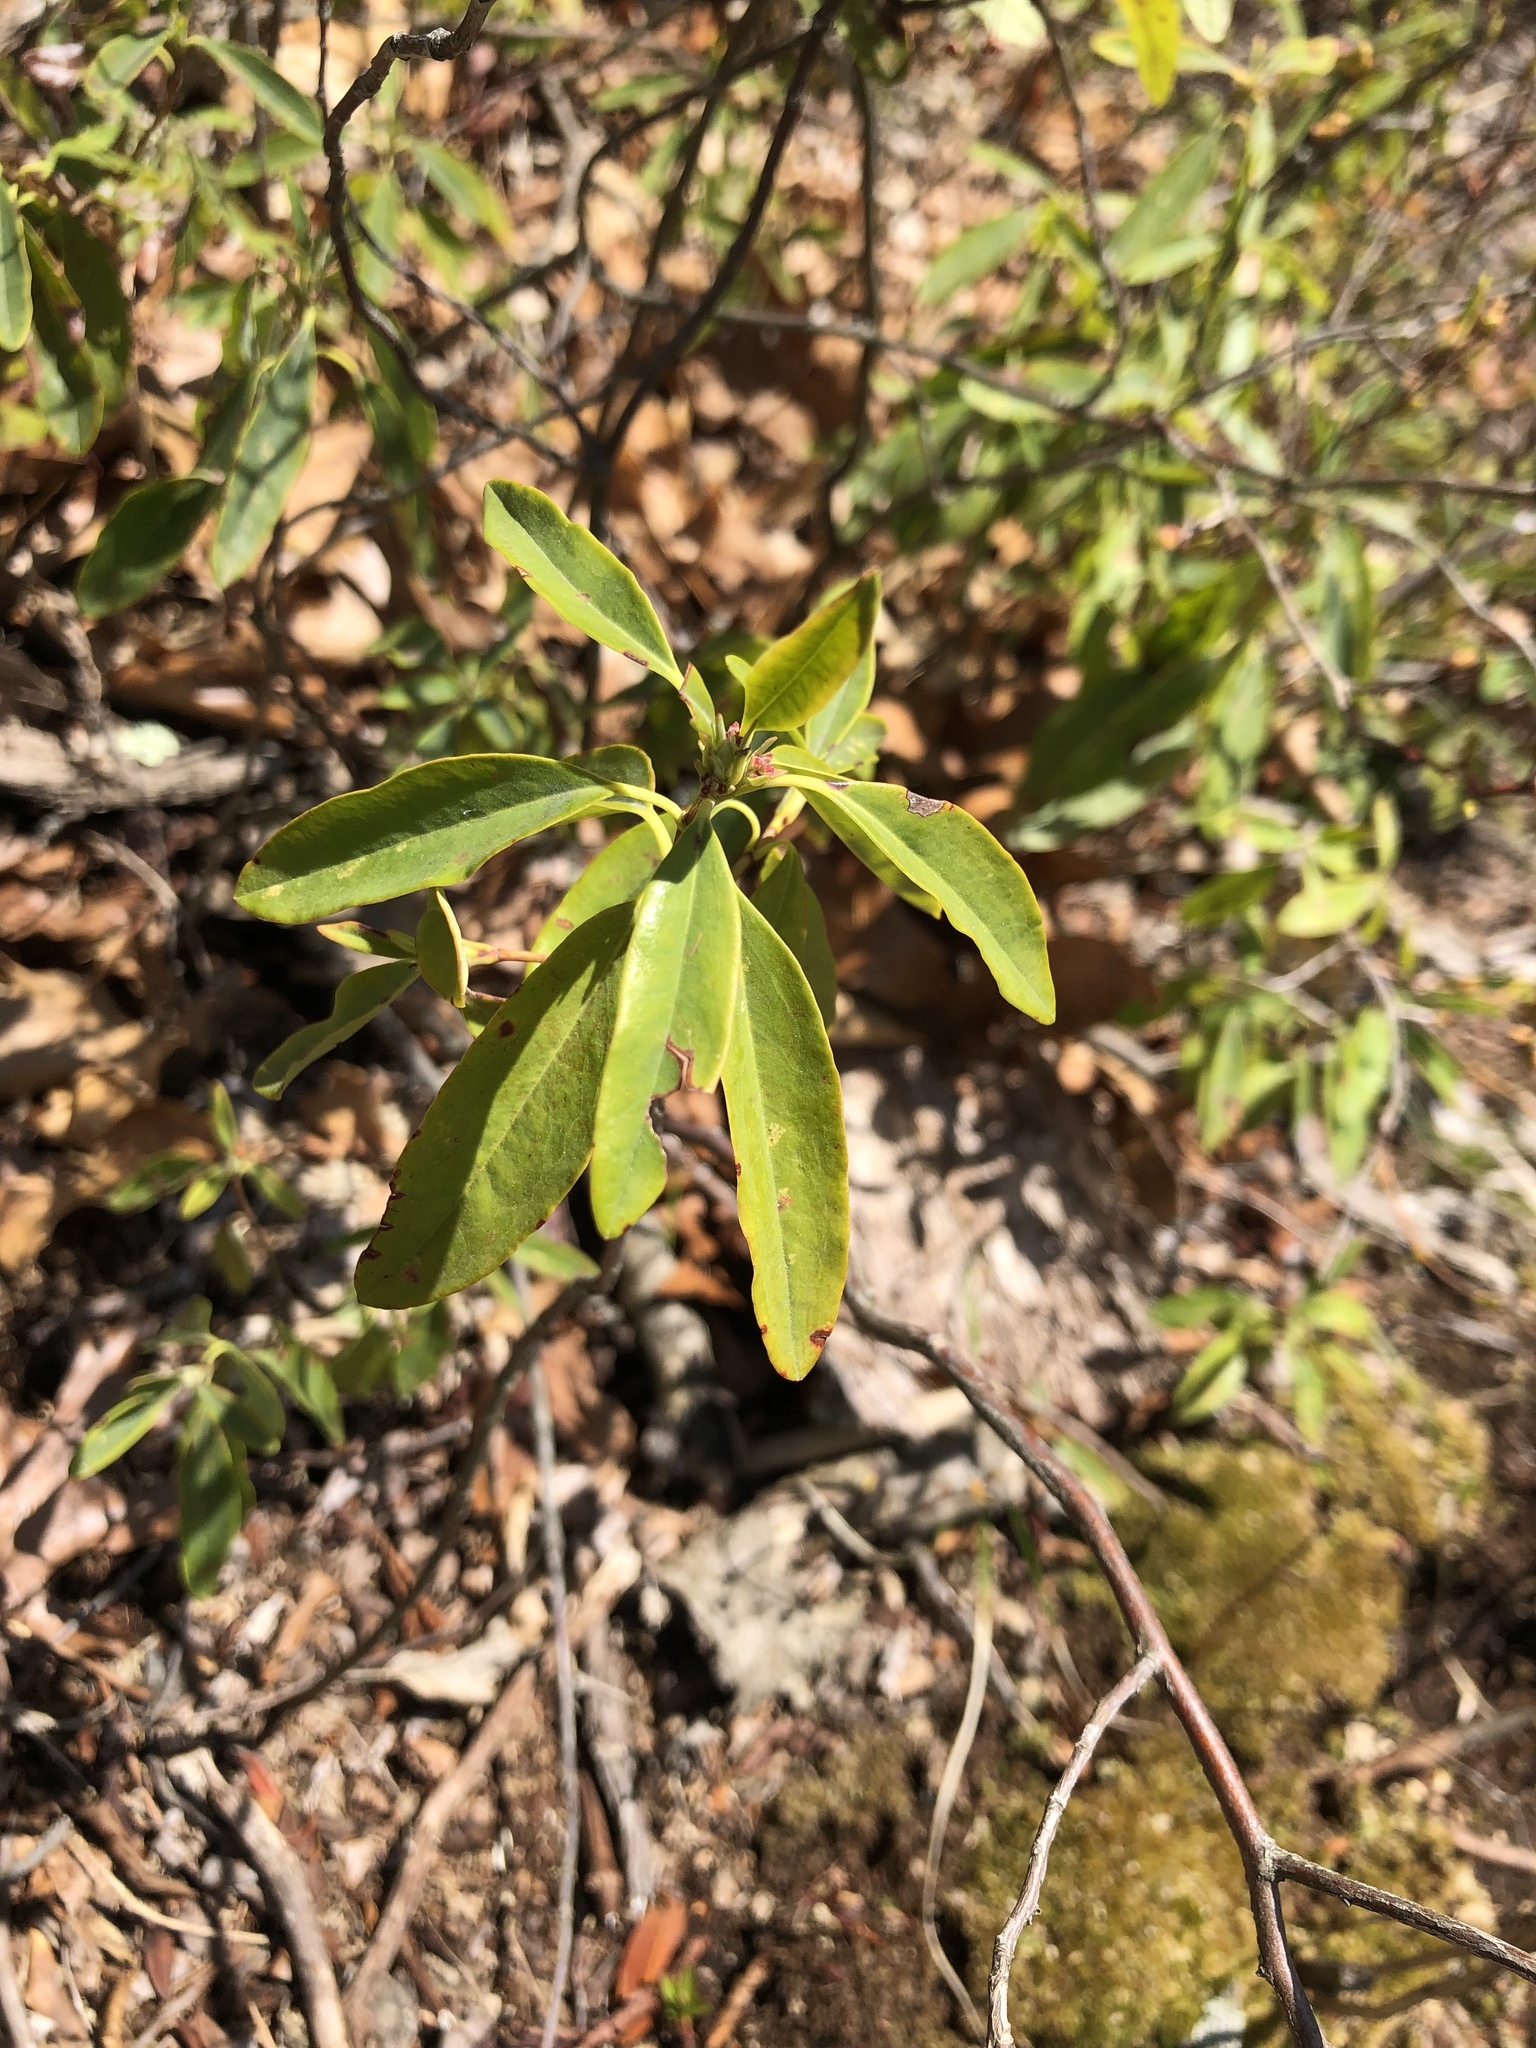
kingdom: Plantae
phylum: Tracheophyta
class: Magnoliopsida
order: Ericales
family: Ericaceae
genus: Kalmia
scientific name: Kalmia angustifolia
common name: Sheep-laurel
